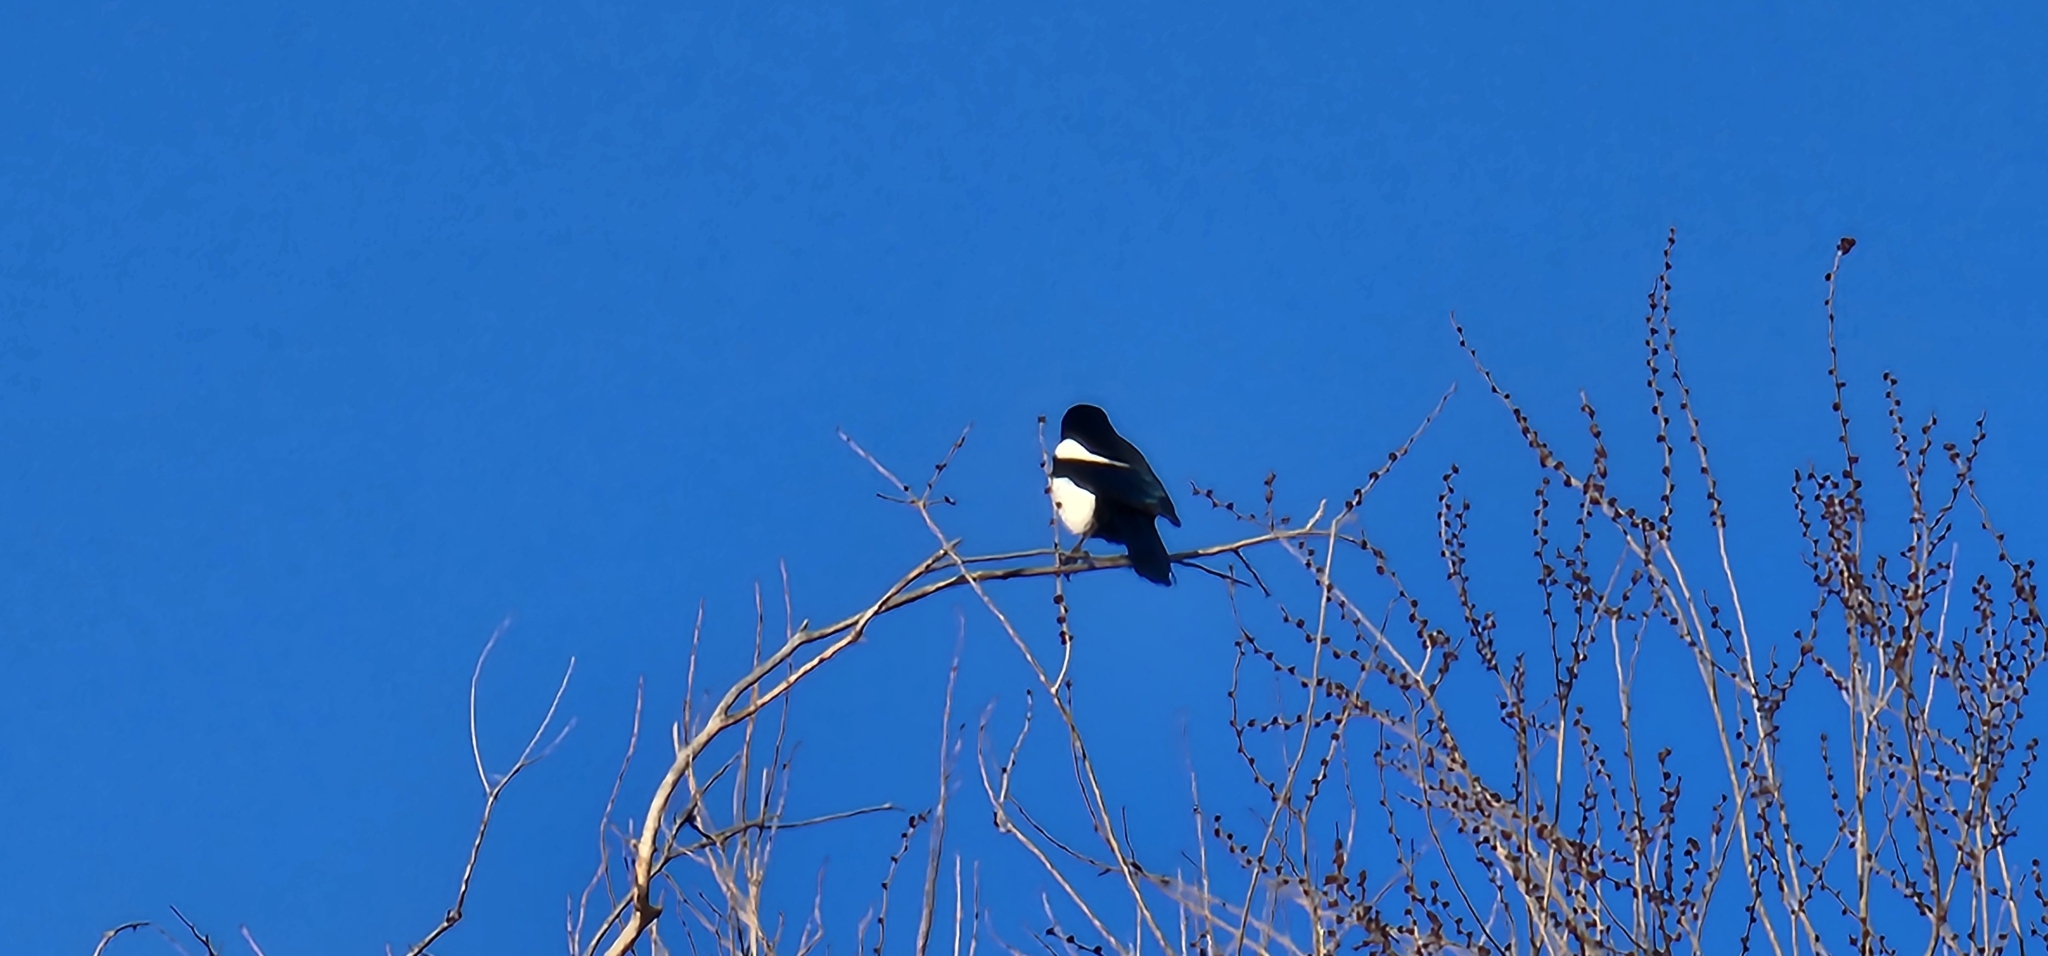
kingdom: Animalia
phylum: Chordata
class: Aves
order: Passeriformes
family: Corvidae
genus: Pica
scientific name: Pica hudsonia
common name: Black-billed magpie
